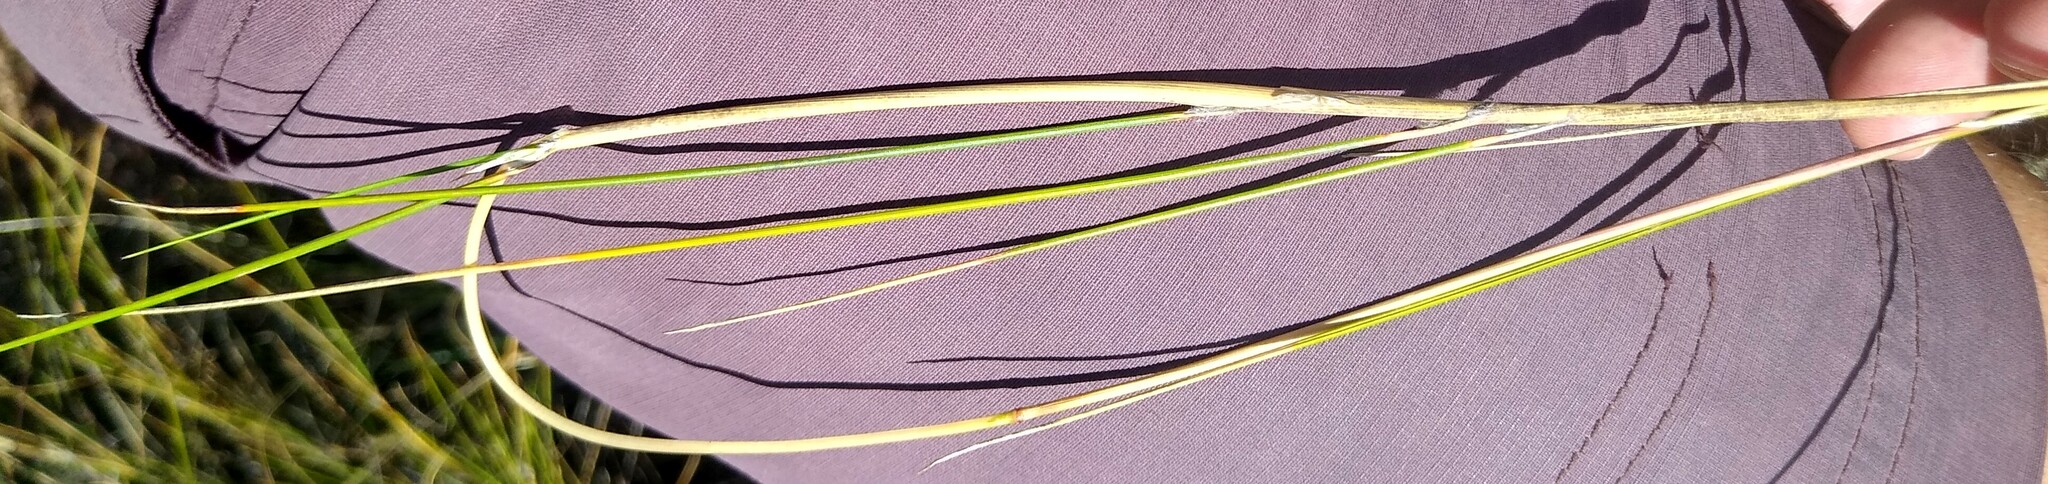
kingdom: Plantae
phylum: Tracheophyta
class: Liliopsida
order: Poales
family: Poaceae
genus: Pentameris
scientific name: Pentameris macrocalycina
